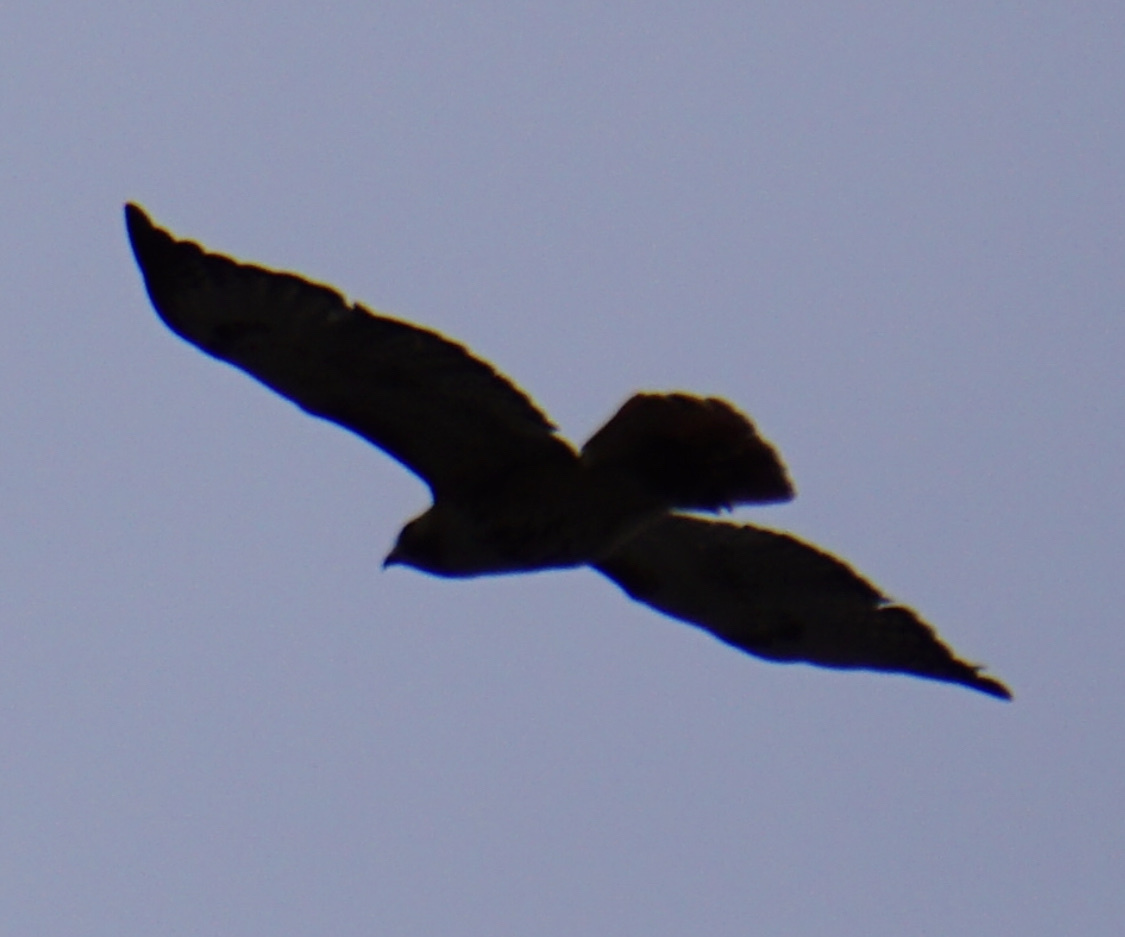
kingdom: Animalia
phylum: Chordata
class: Aves
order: Accipitriformes
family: Accipitridae
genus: Buteo
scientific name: Buteo jamaicensis
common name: Red-tailed hawk
